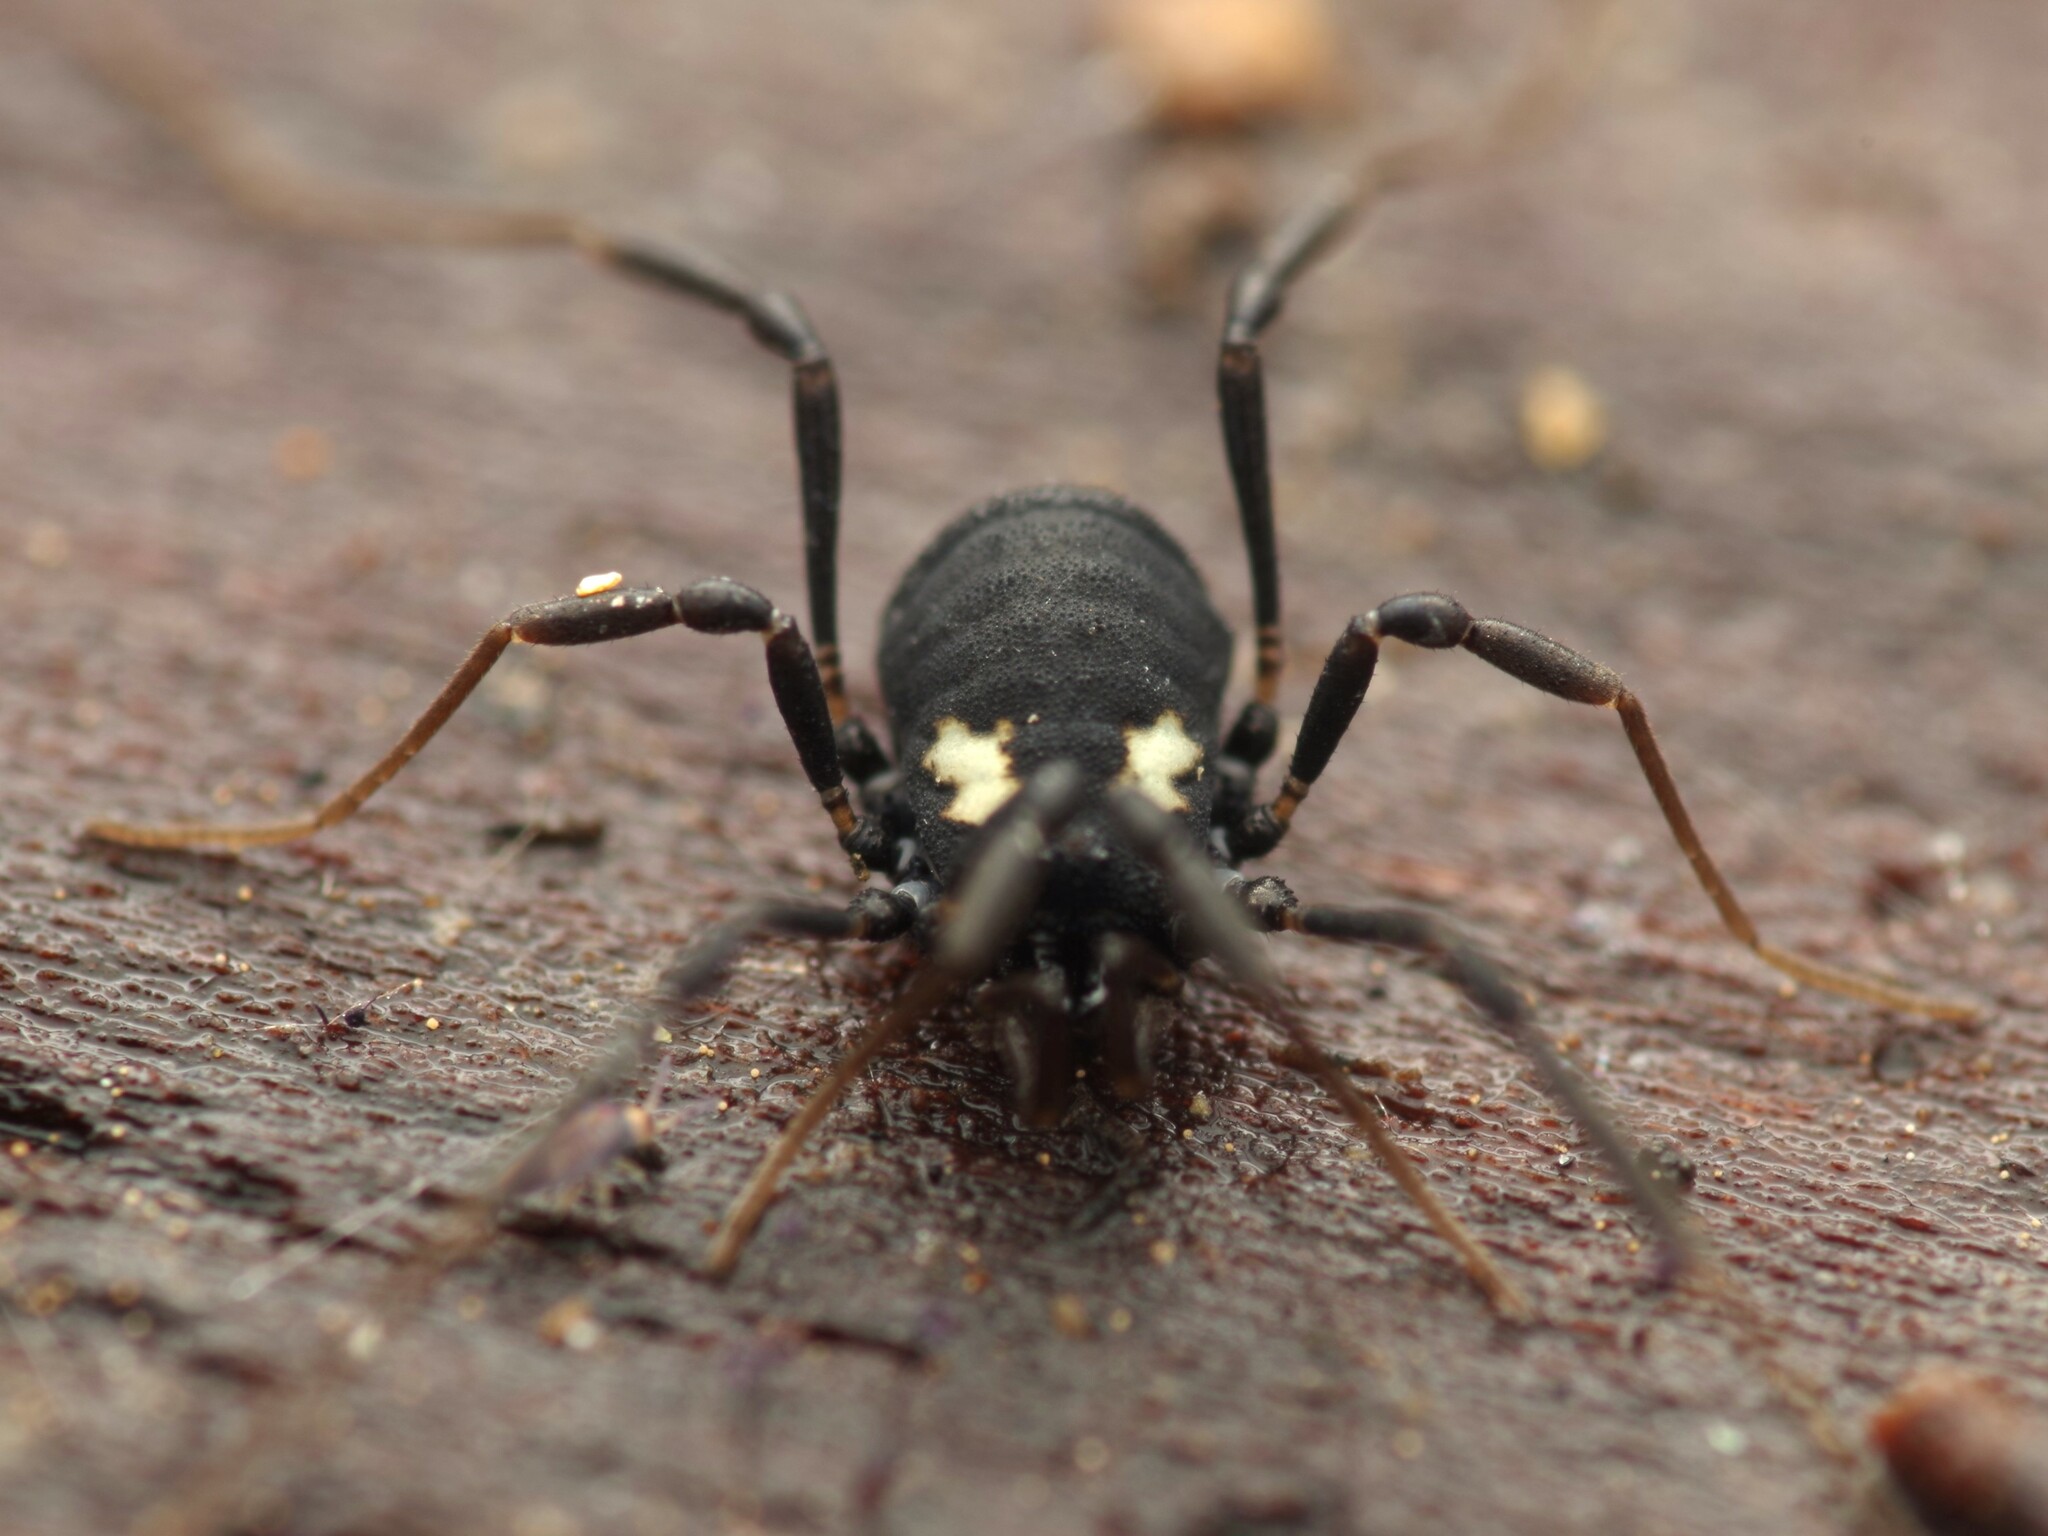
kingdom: Animalia
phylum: Arthropoda
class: Arachnida
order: Opiliones
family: Nemastomatidae
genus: Nemastoma
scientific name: Nemastoma bimaculatum
